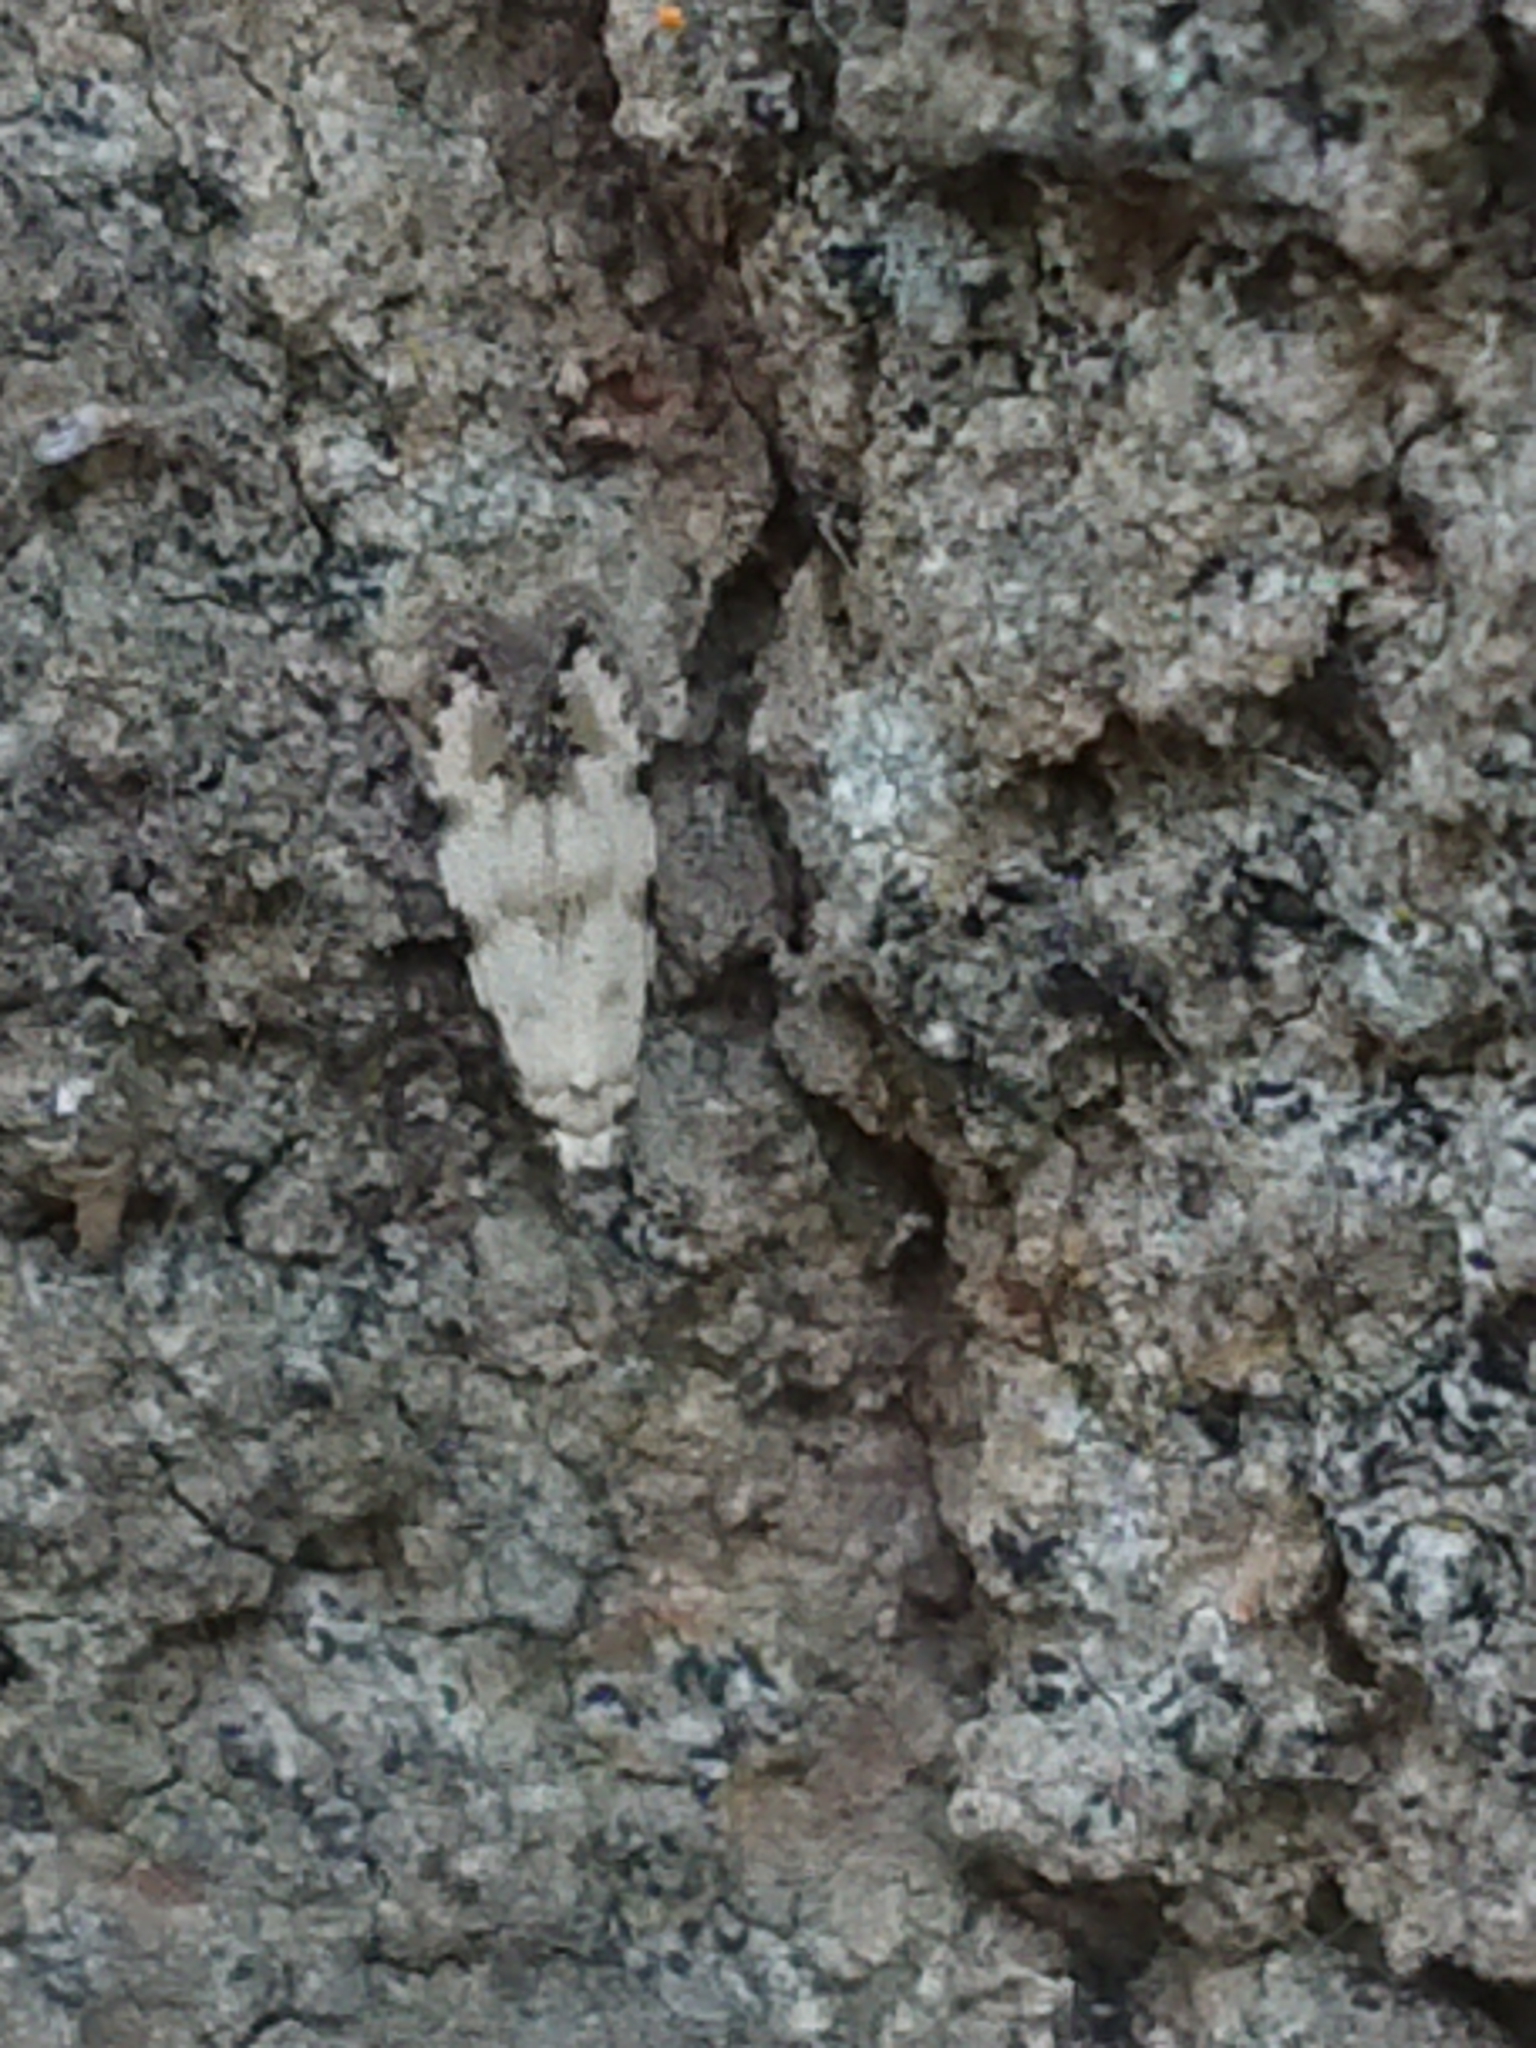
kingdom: Animalia
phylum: Arthropoda
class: Insecta
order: Lepidoptera
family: Tineidae
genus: Crypsitricha
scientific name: Crypsitricha stereota
